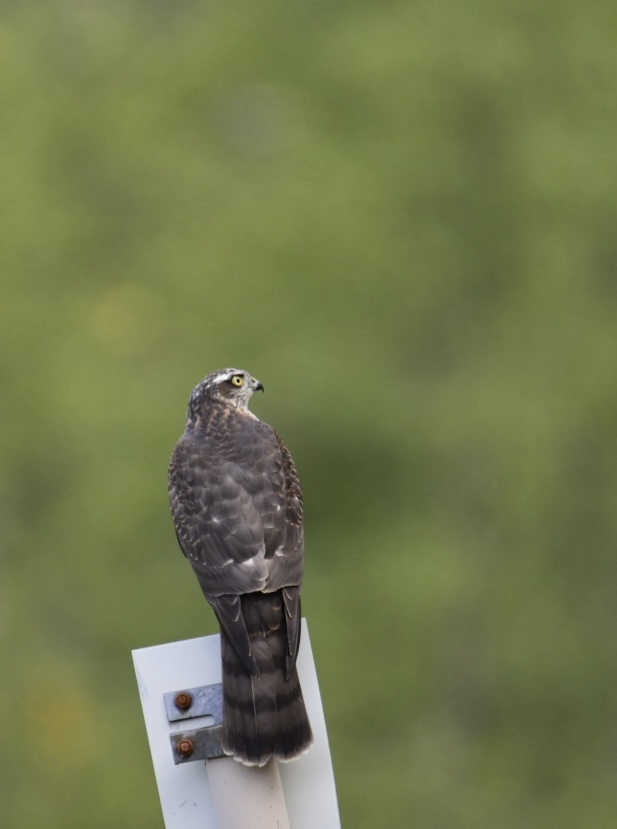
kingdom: Animalia
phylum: Chordata
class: Aves
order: Accipitriformes
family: Accipitridae
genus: Accipiter
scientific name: Accipiter nisus
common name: Eurasian sparrowhawk
